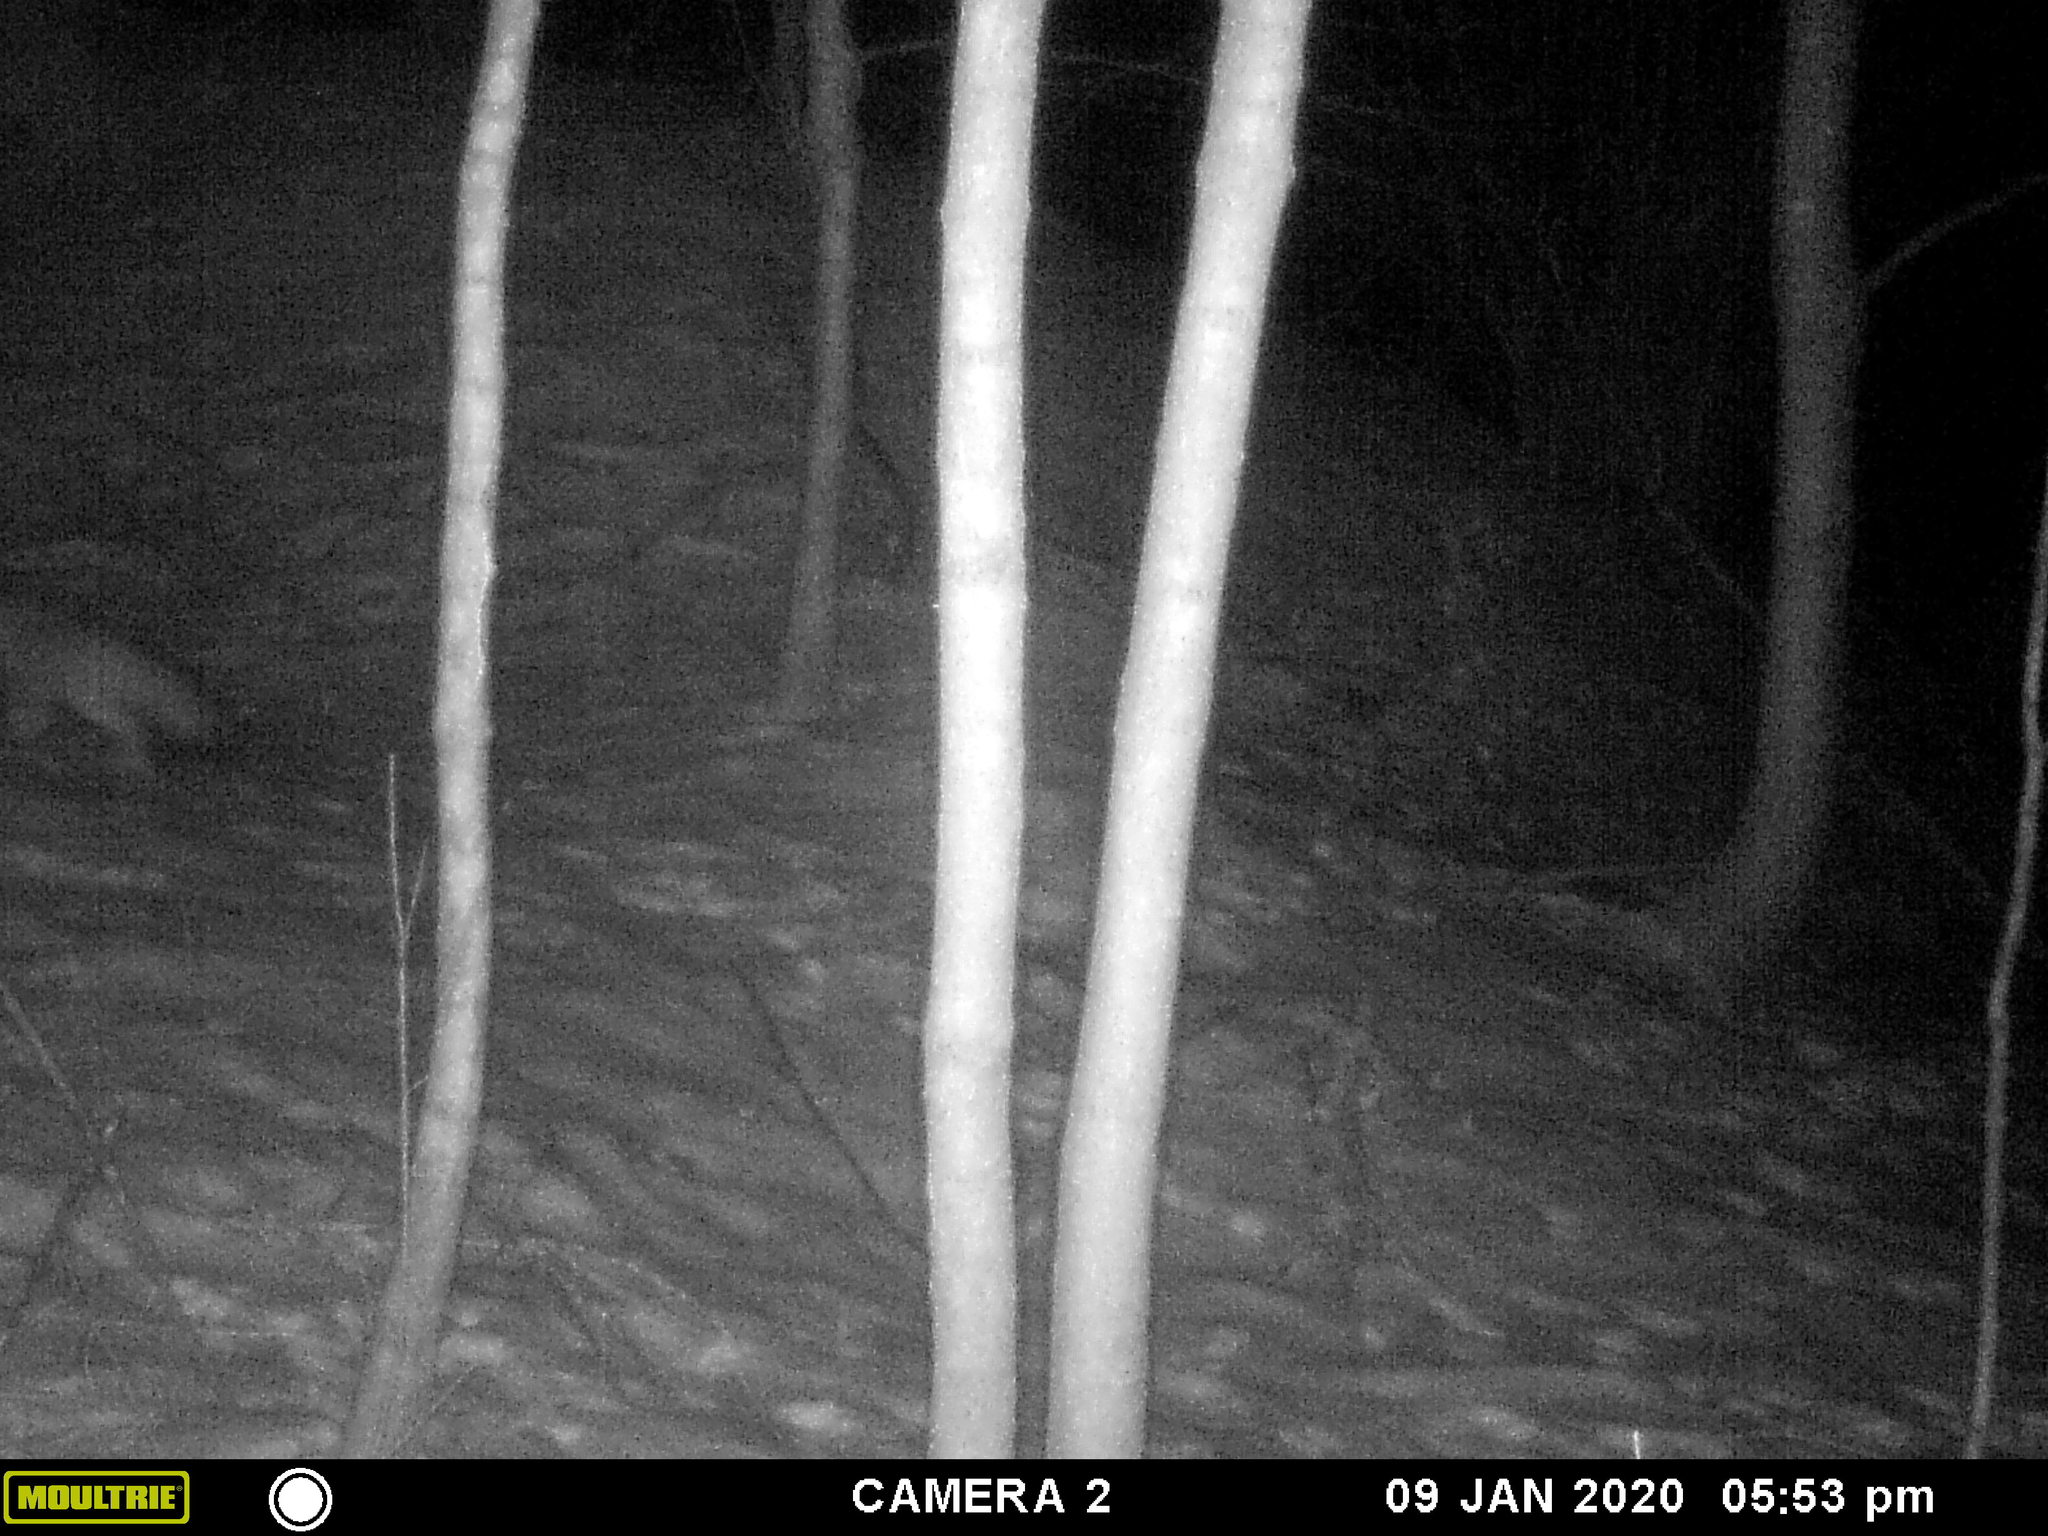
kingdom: Animalia
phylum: Chordata
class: Mammalia
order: Carnivora
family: Canidae
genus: Urocyon
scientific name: Urocyon cinereoargenteus
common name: Gray fox
